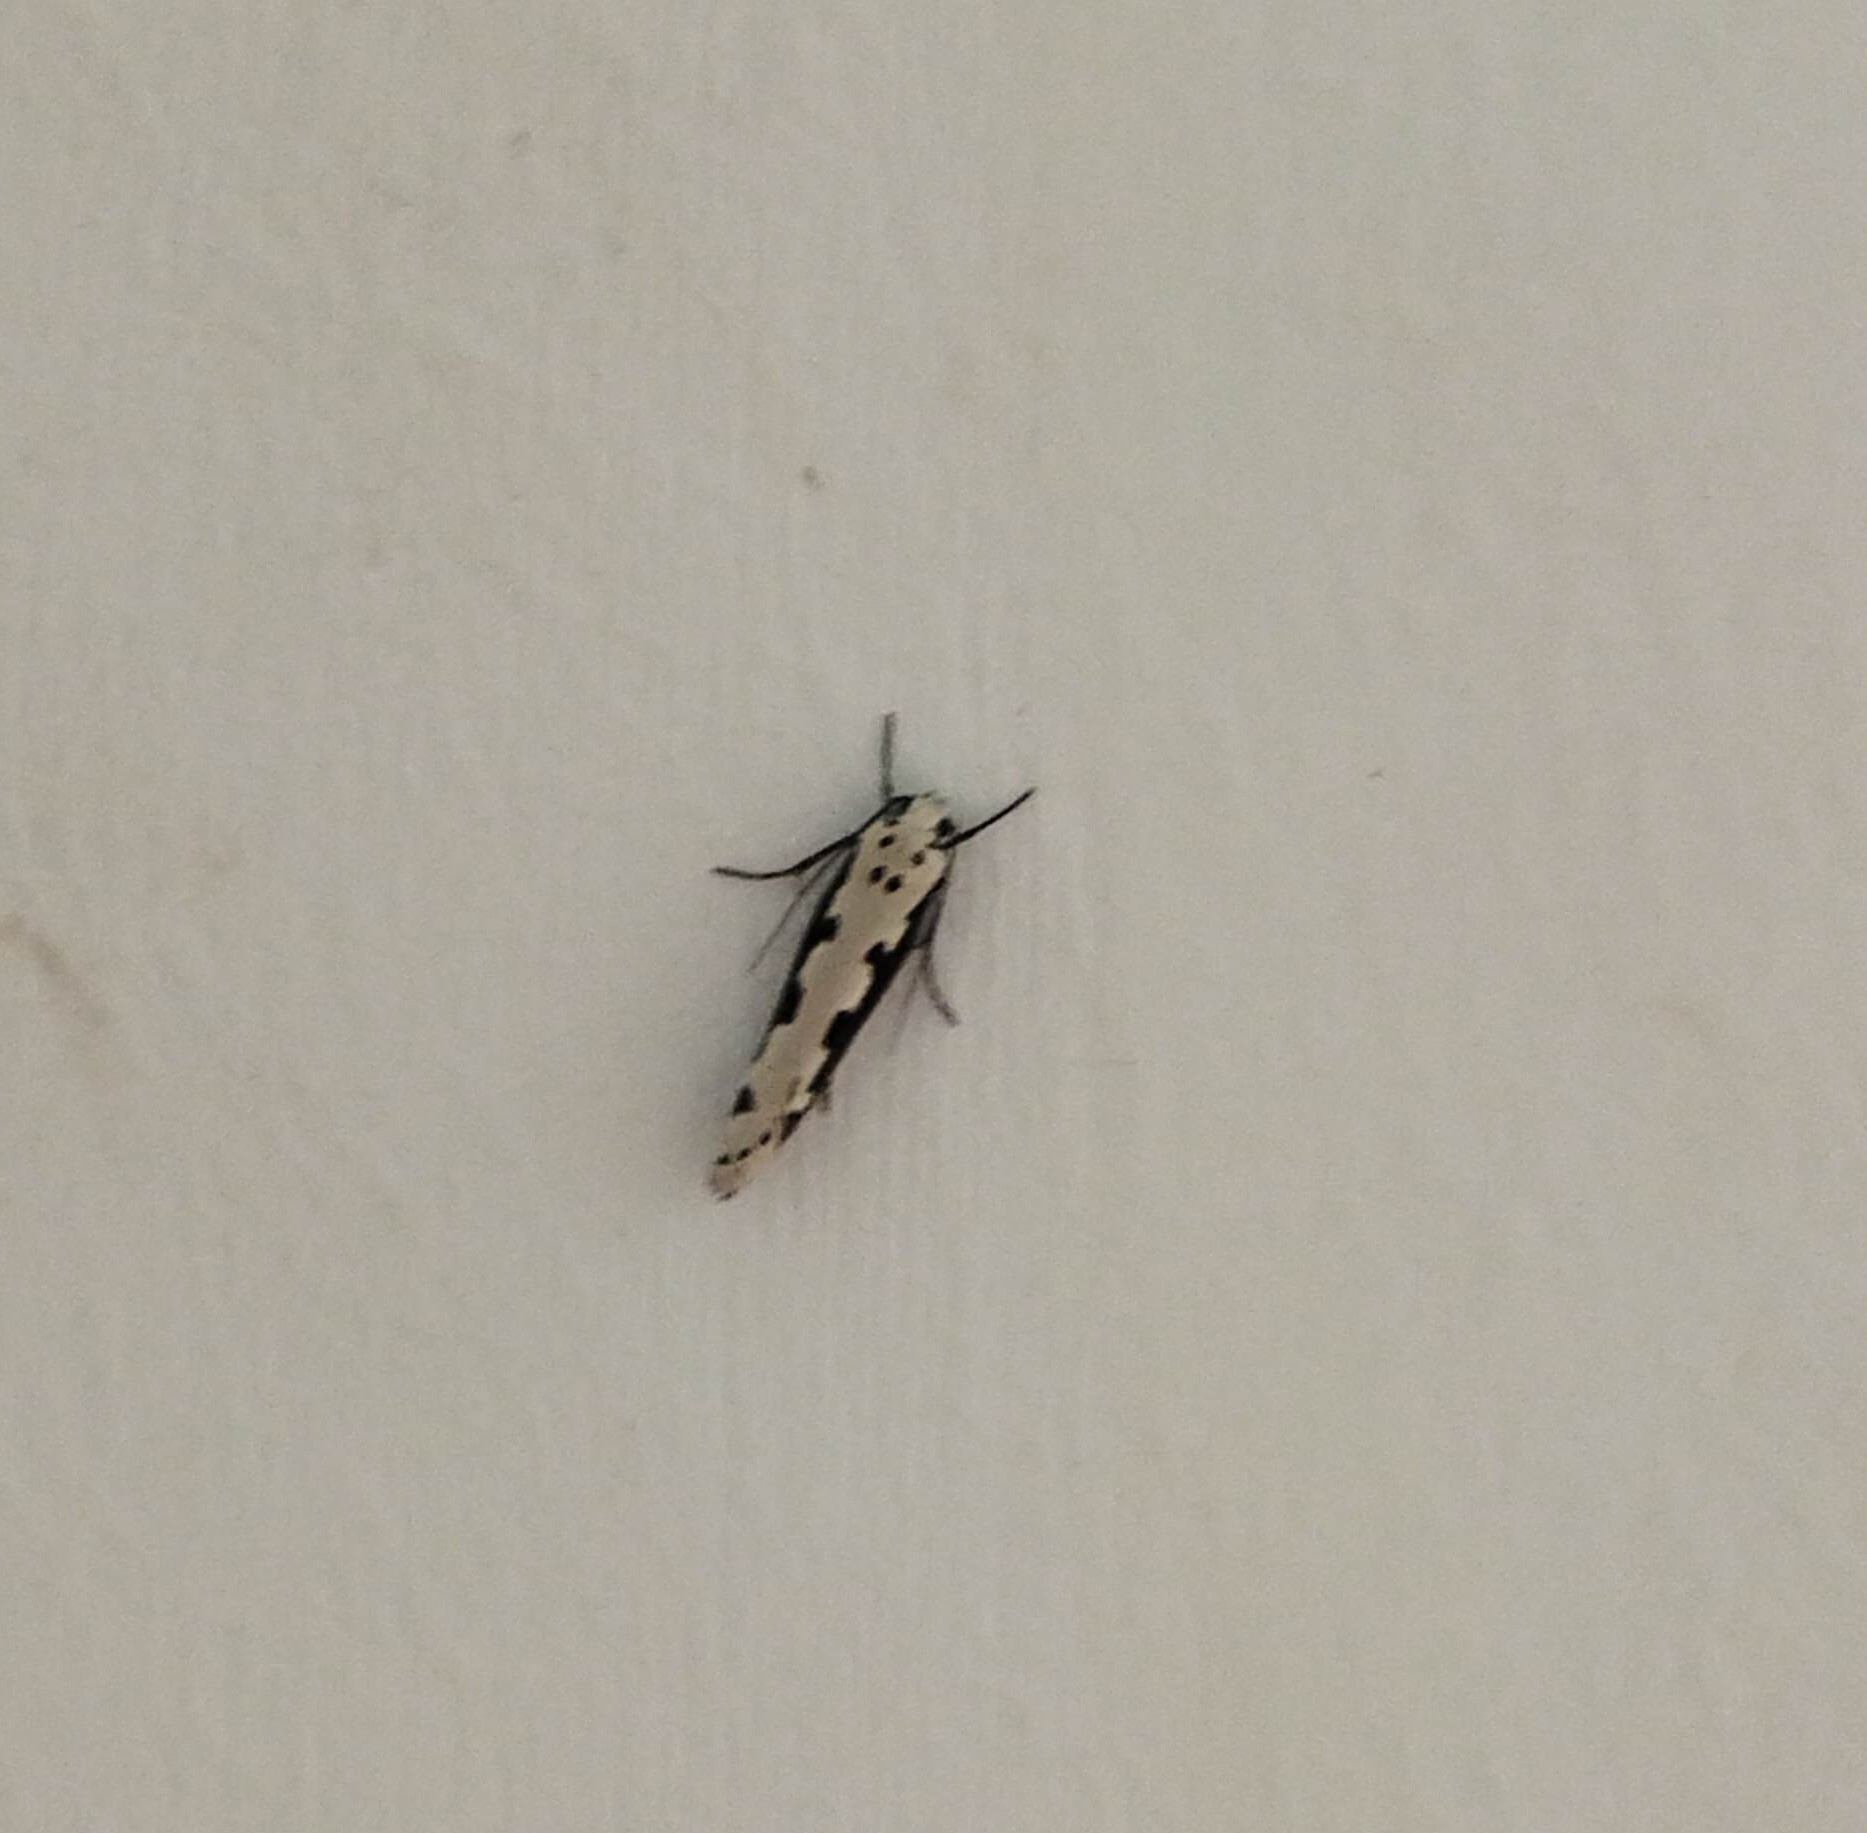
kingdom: Animalia
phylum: Arthropoda
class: Insecta
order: Lepidoptera
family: Ethmiidae
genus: Ethmia
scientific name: Ethmia bipunctella
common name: Bordered ermel
